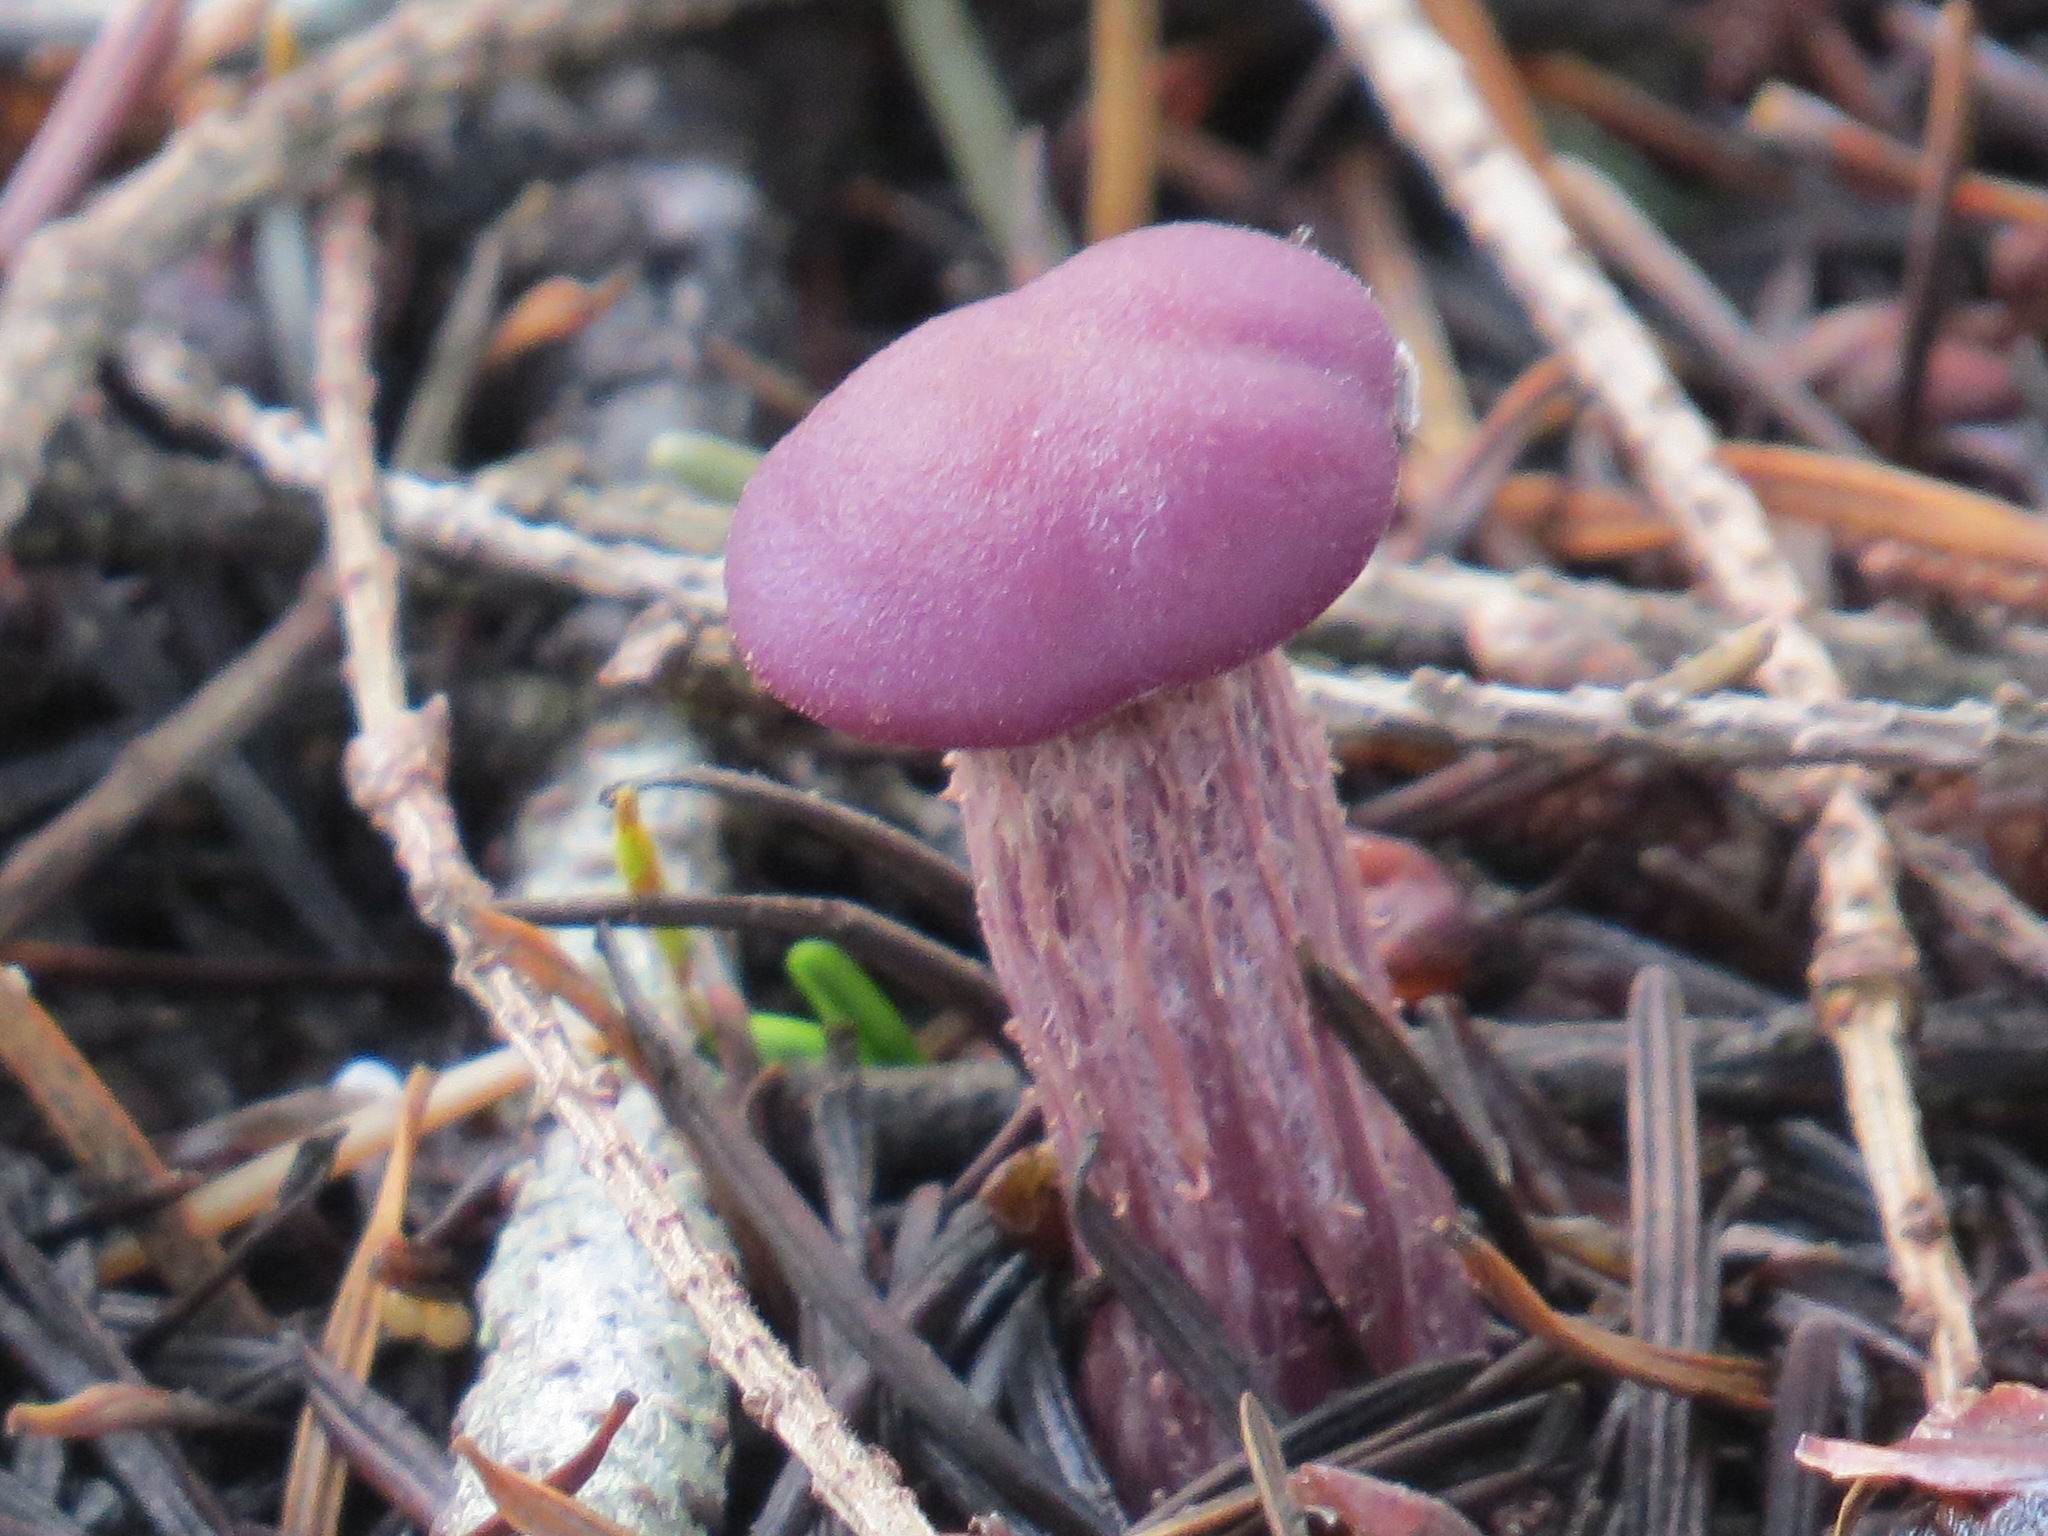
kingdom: Fungi
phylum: Basidiomycota
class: Agaricomycetes
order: Agaricales
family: Hydnangiaceae
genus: Laccaria
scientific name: Laccaria amethysteo-occidentalis
